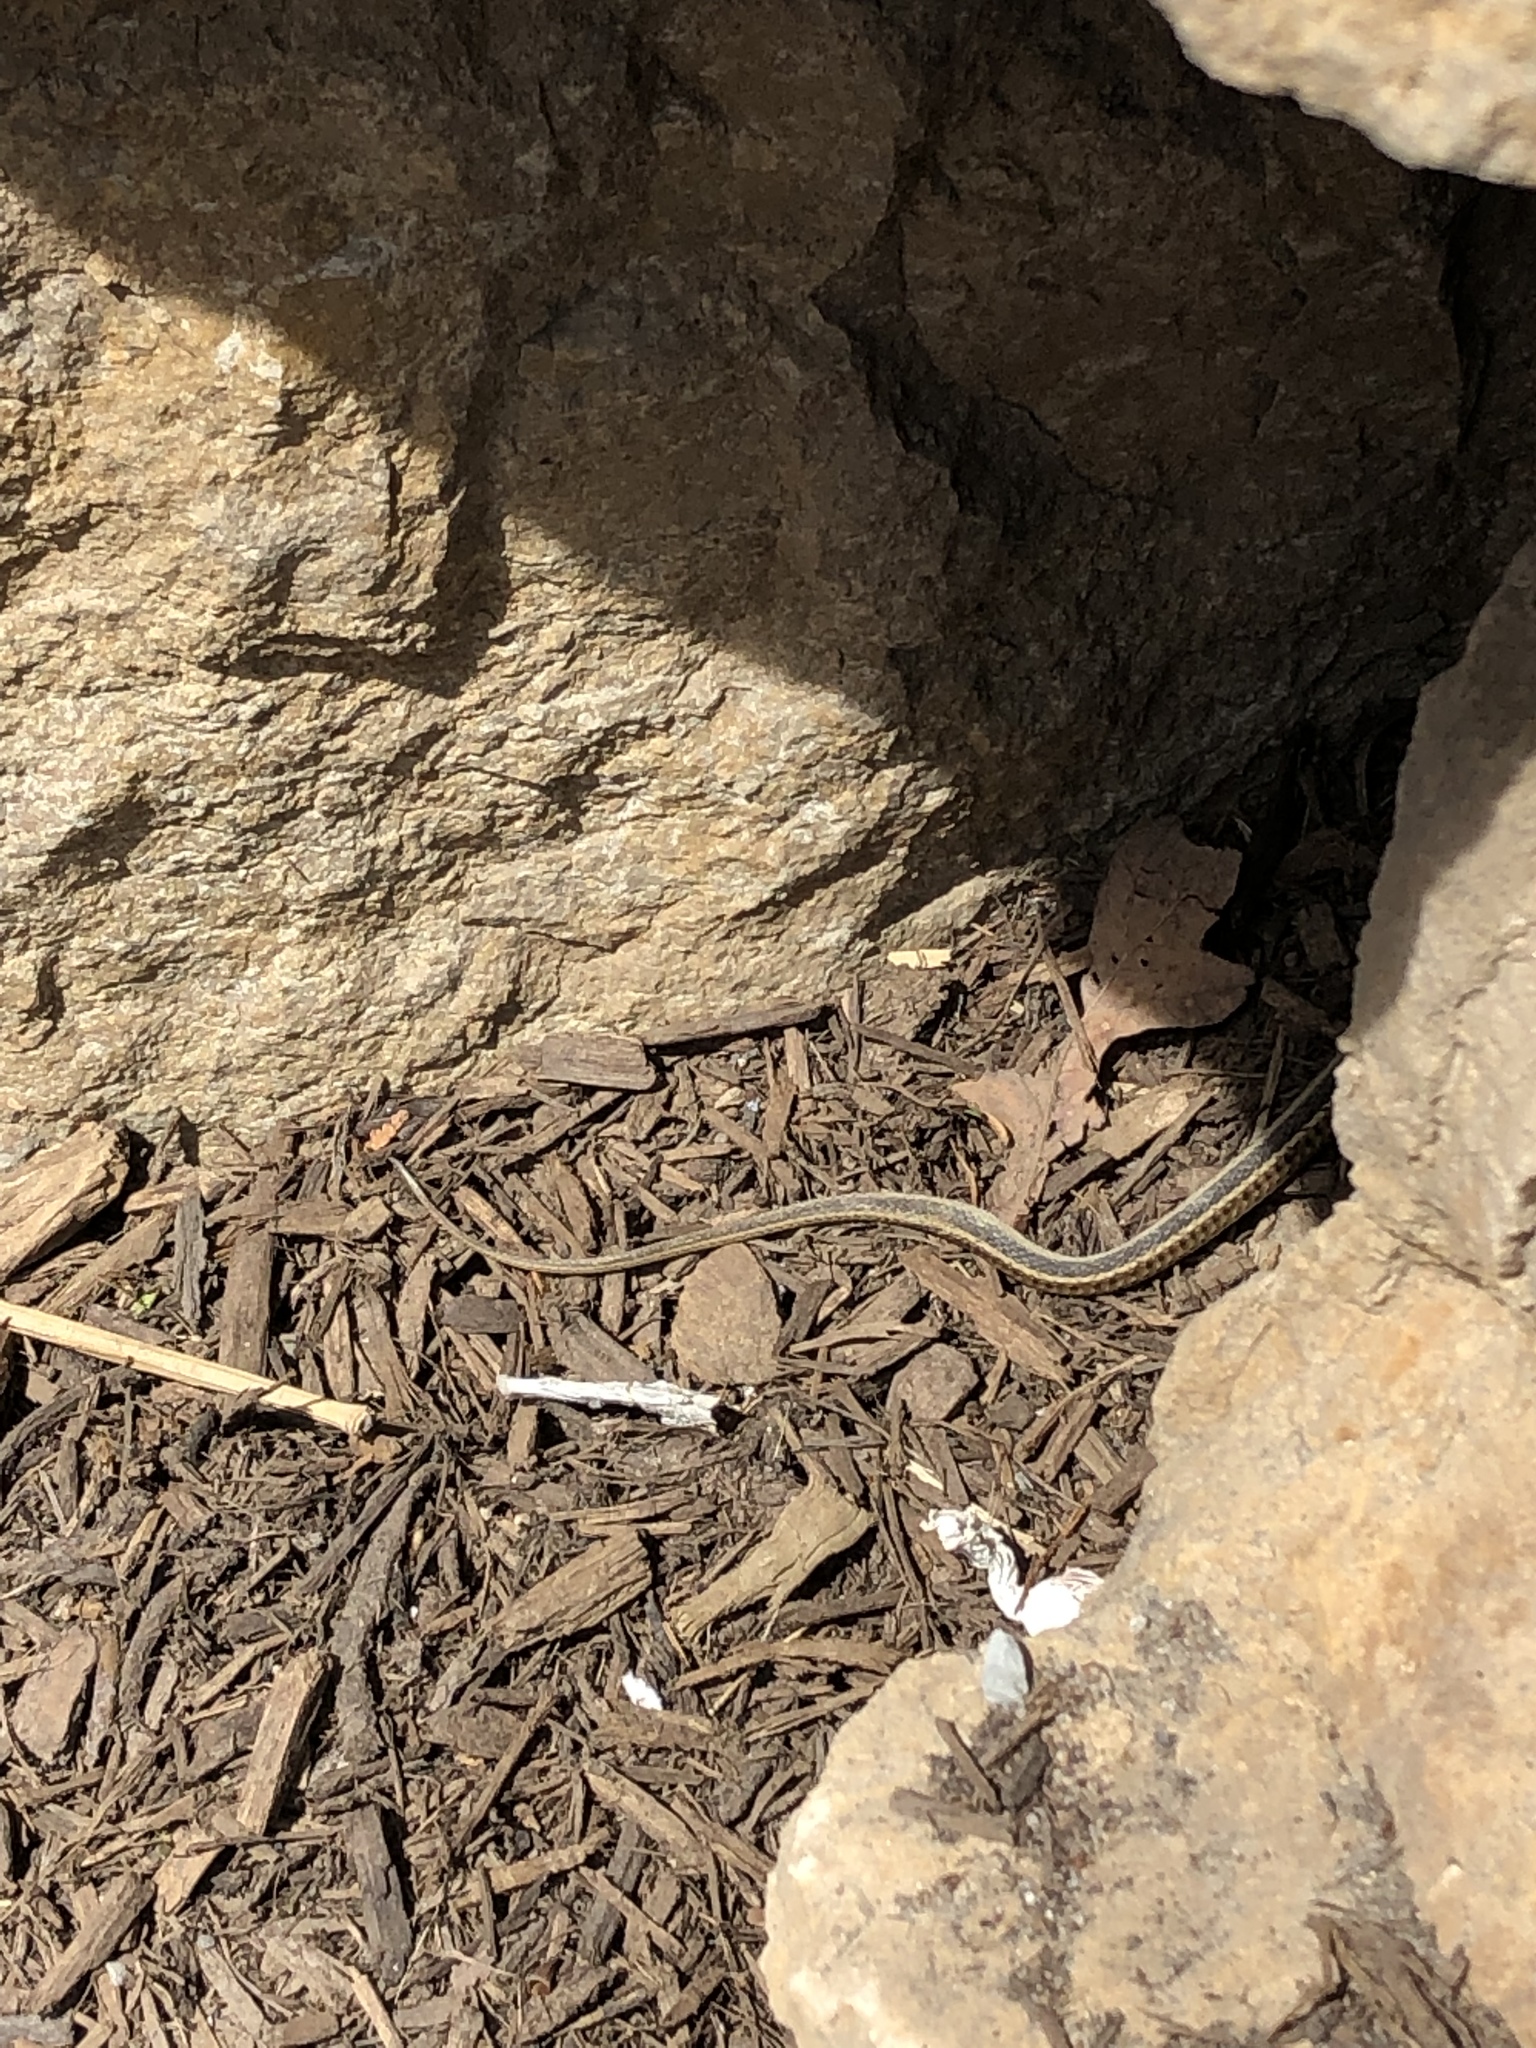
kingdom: Animalia
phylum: Chordata
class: Squamata
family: Colubridae
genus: Thamnophis
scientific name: Thamnophis sirtalis
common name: Common garter snake
